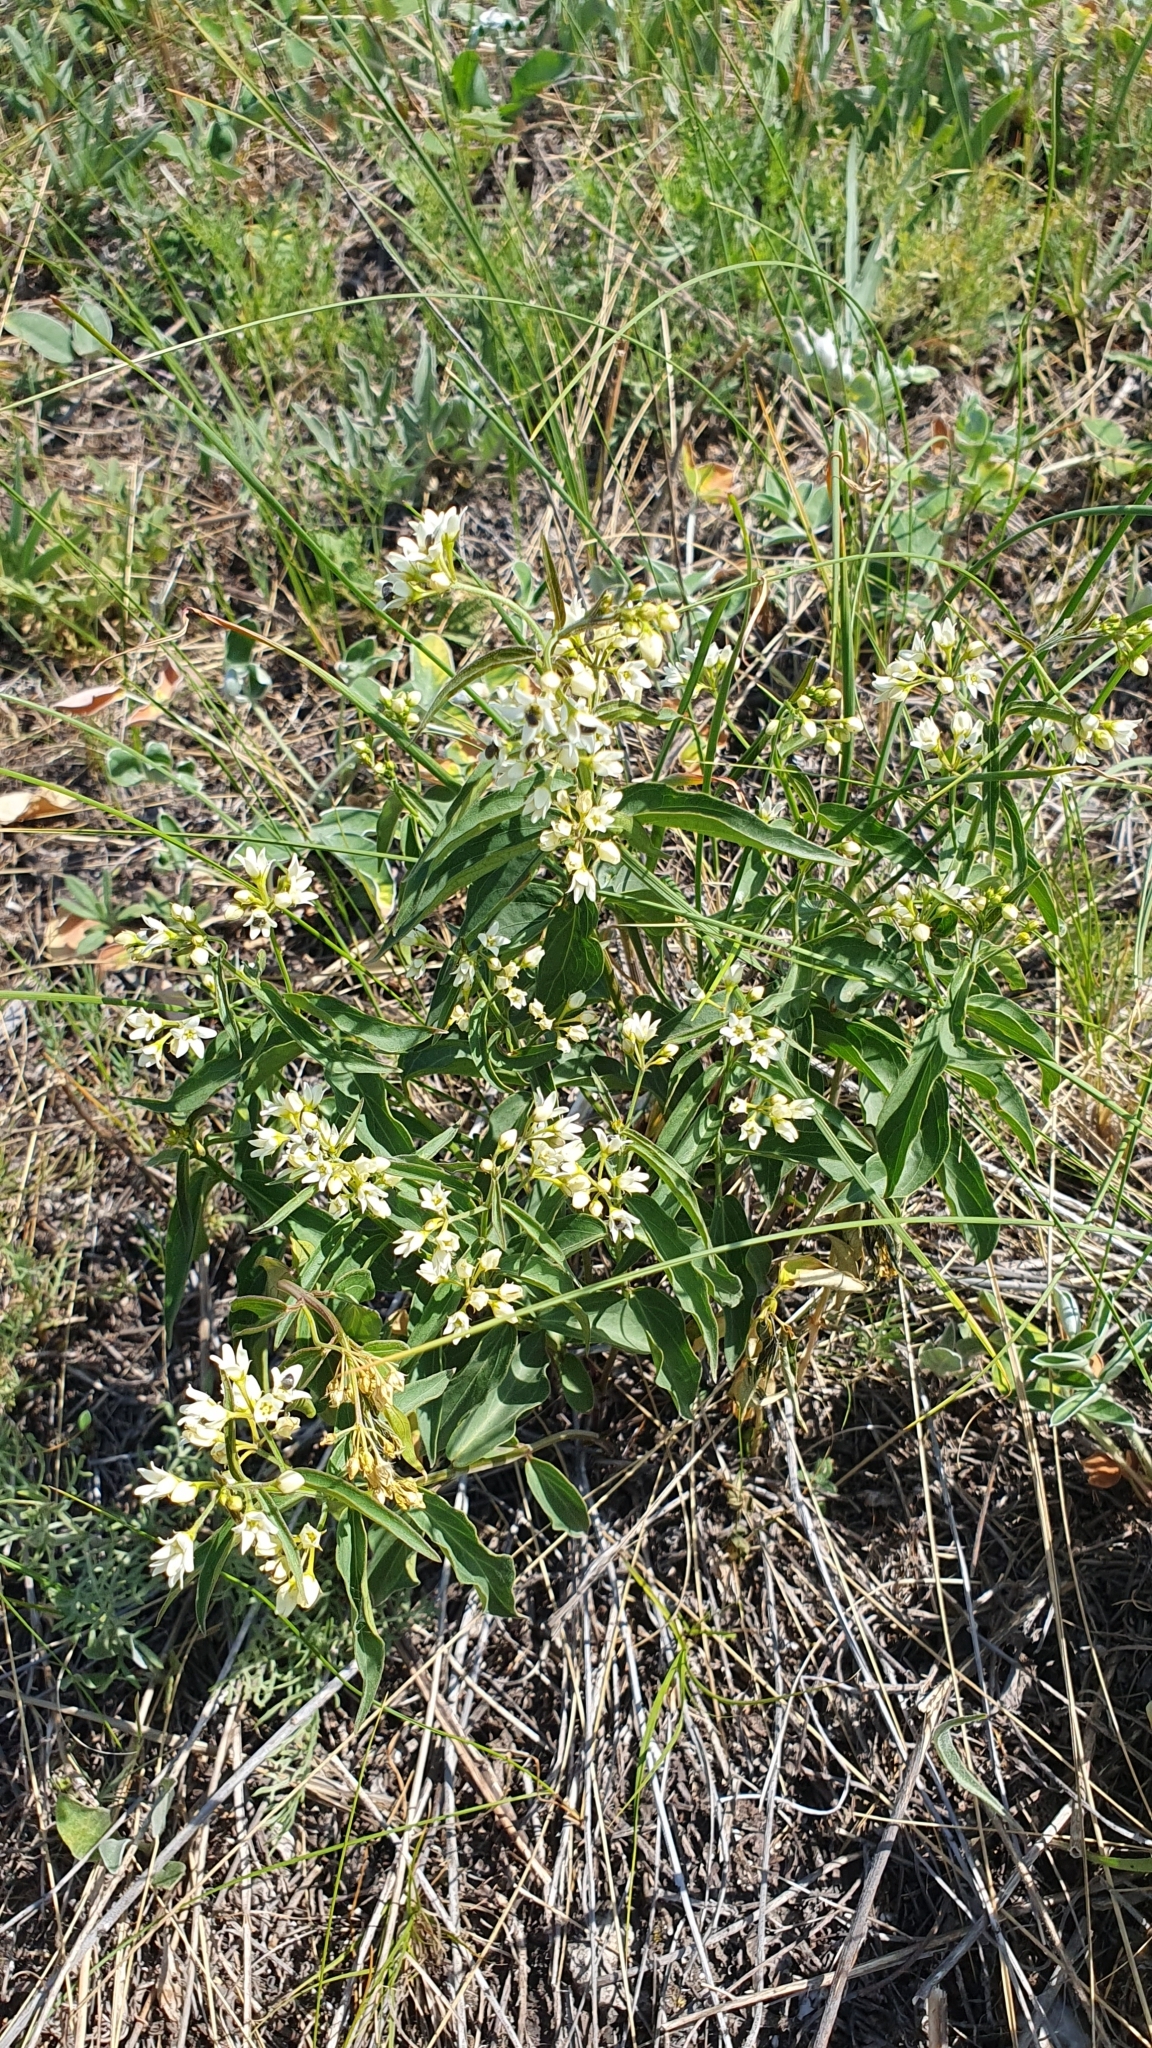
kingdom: Plantae
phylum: Tracheophyta
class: Magnoliopsida
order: Gentianales
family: Apocynaceae
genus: Vincetoxicum
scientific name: Vincetoxicum hirundinaria
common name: White swallowwort
